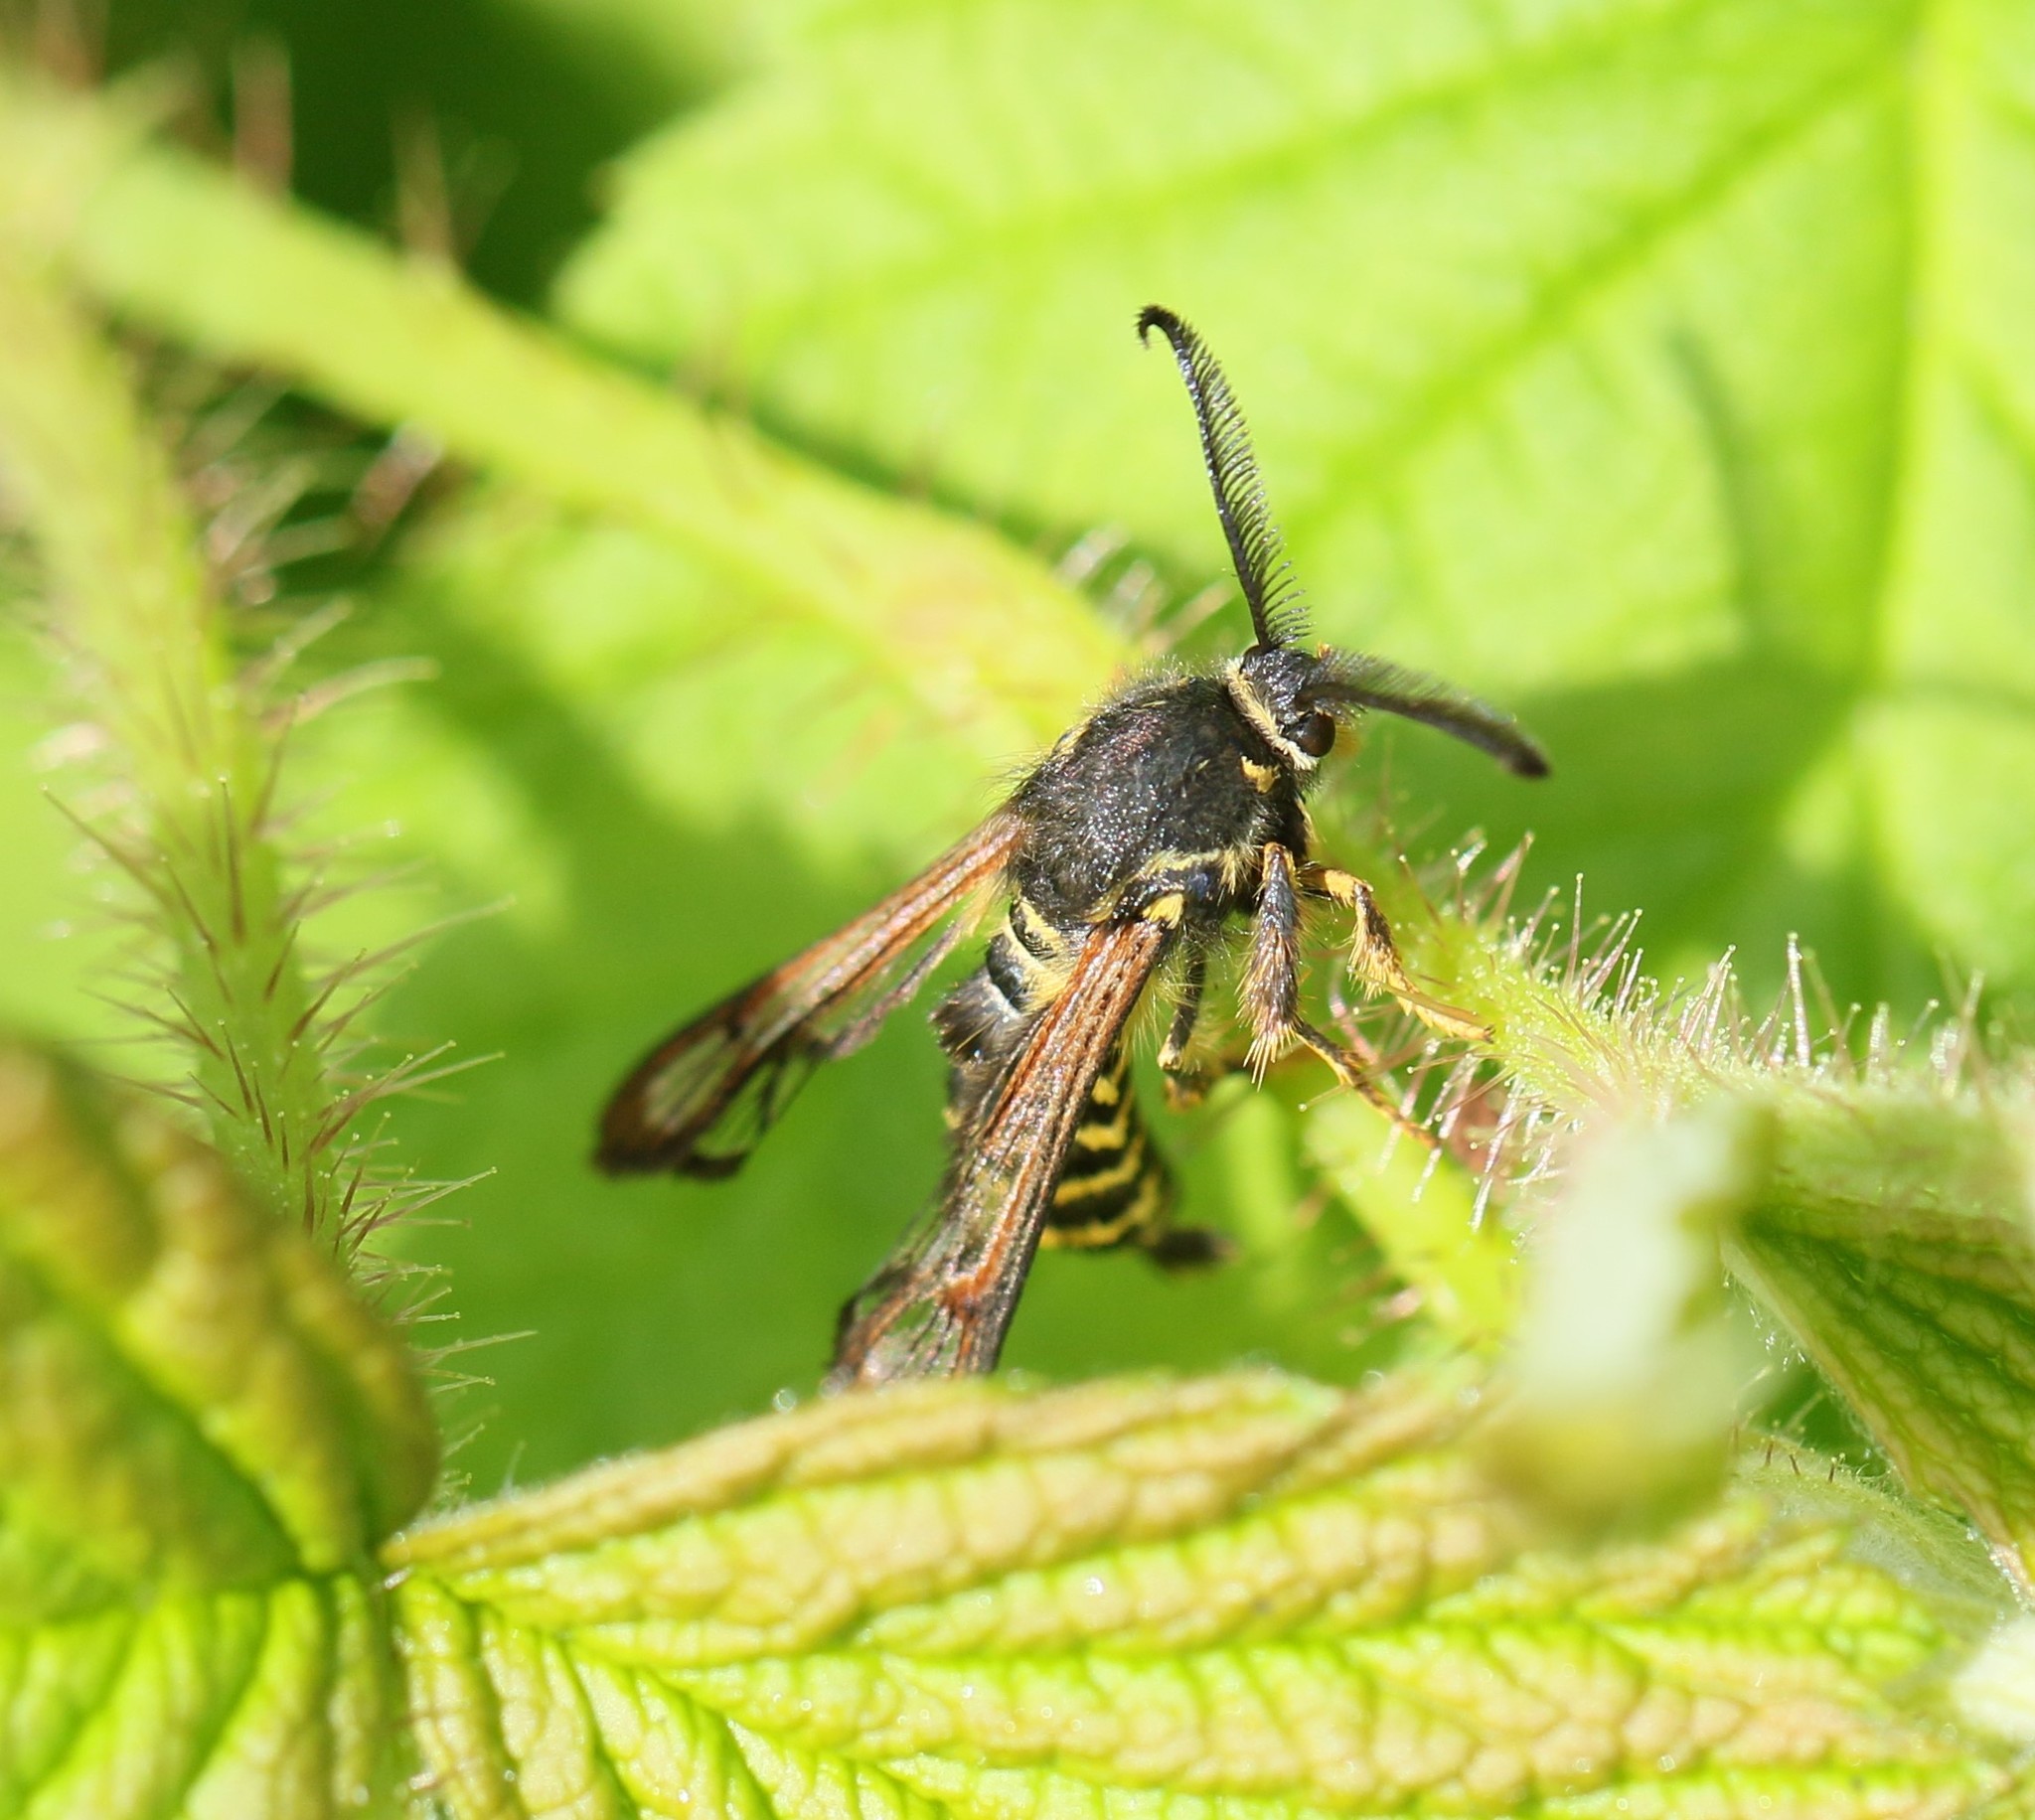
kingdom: Animalia
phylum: Arthropoda
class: Insecta
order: Lepidoptera
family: Sesiidae
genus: Pennisetia
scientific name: Pennisetia marginatum
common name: Raspberry crown borer
